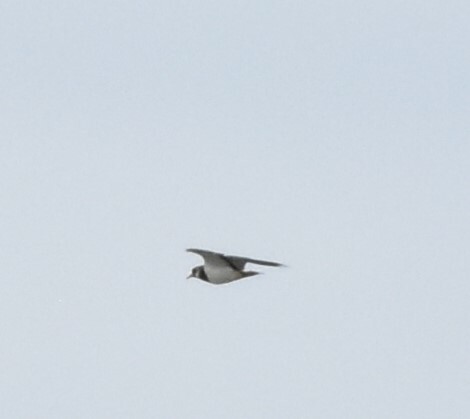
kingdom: Animalia
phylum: Chordata
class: Aves
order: Charadriiformes
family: Charadriidae
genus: Vanellus
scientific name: Vanellus vanellus
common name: Northern lapwing
